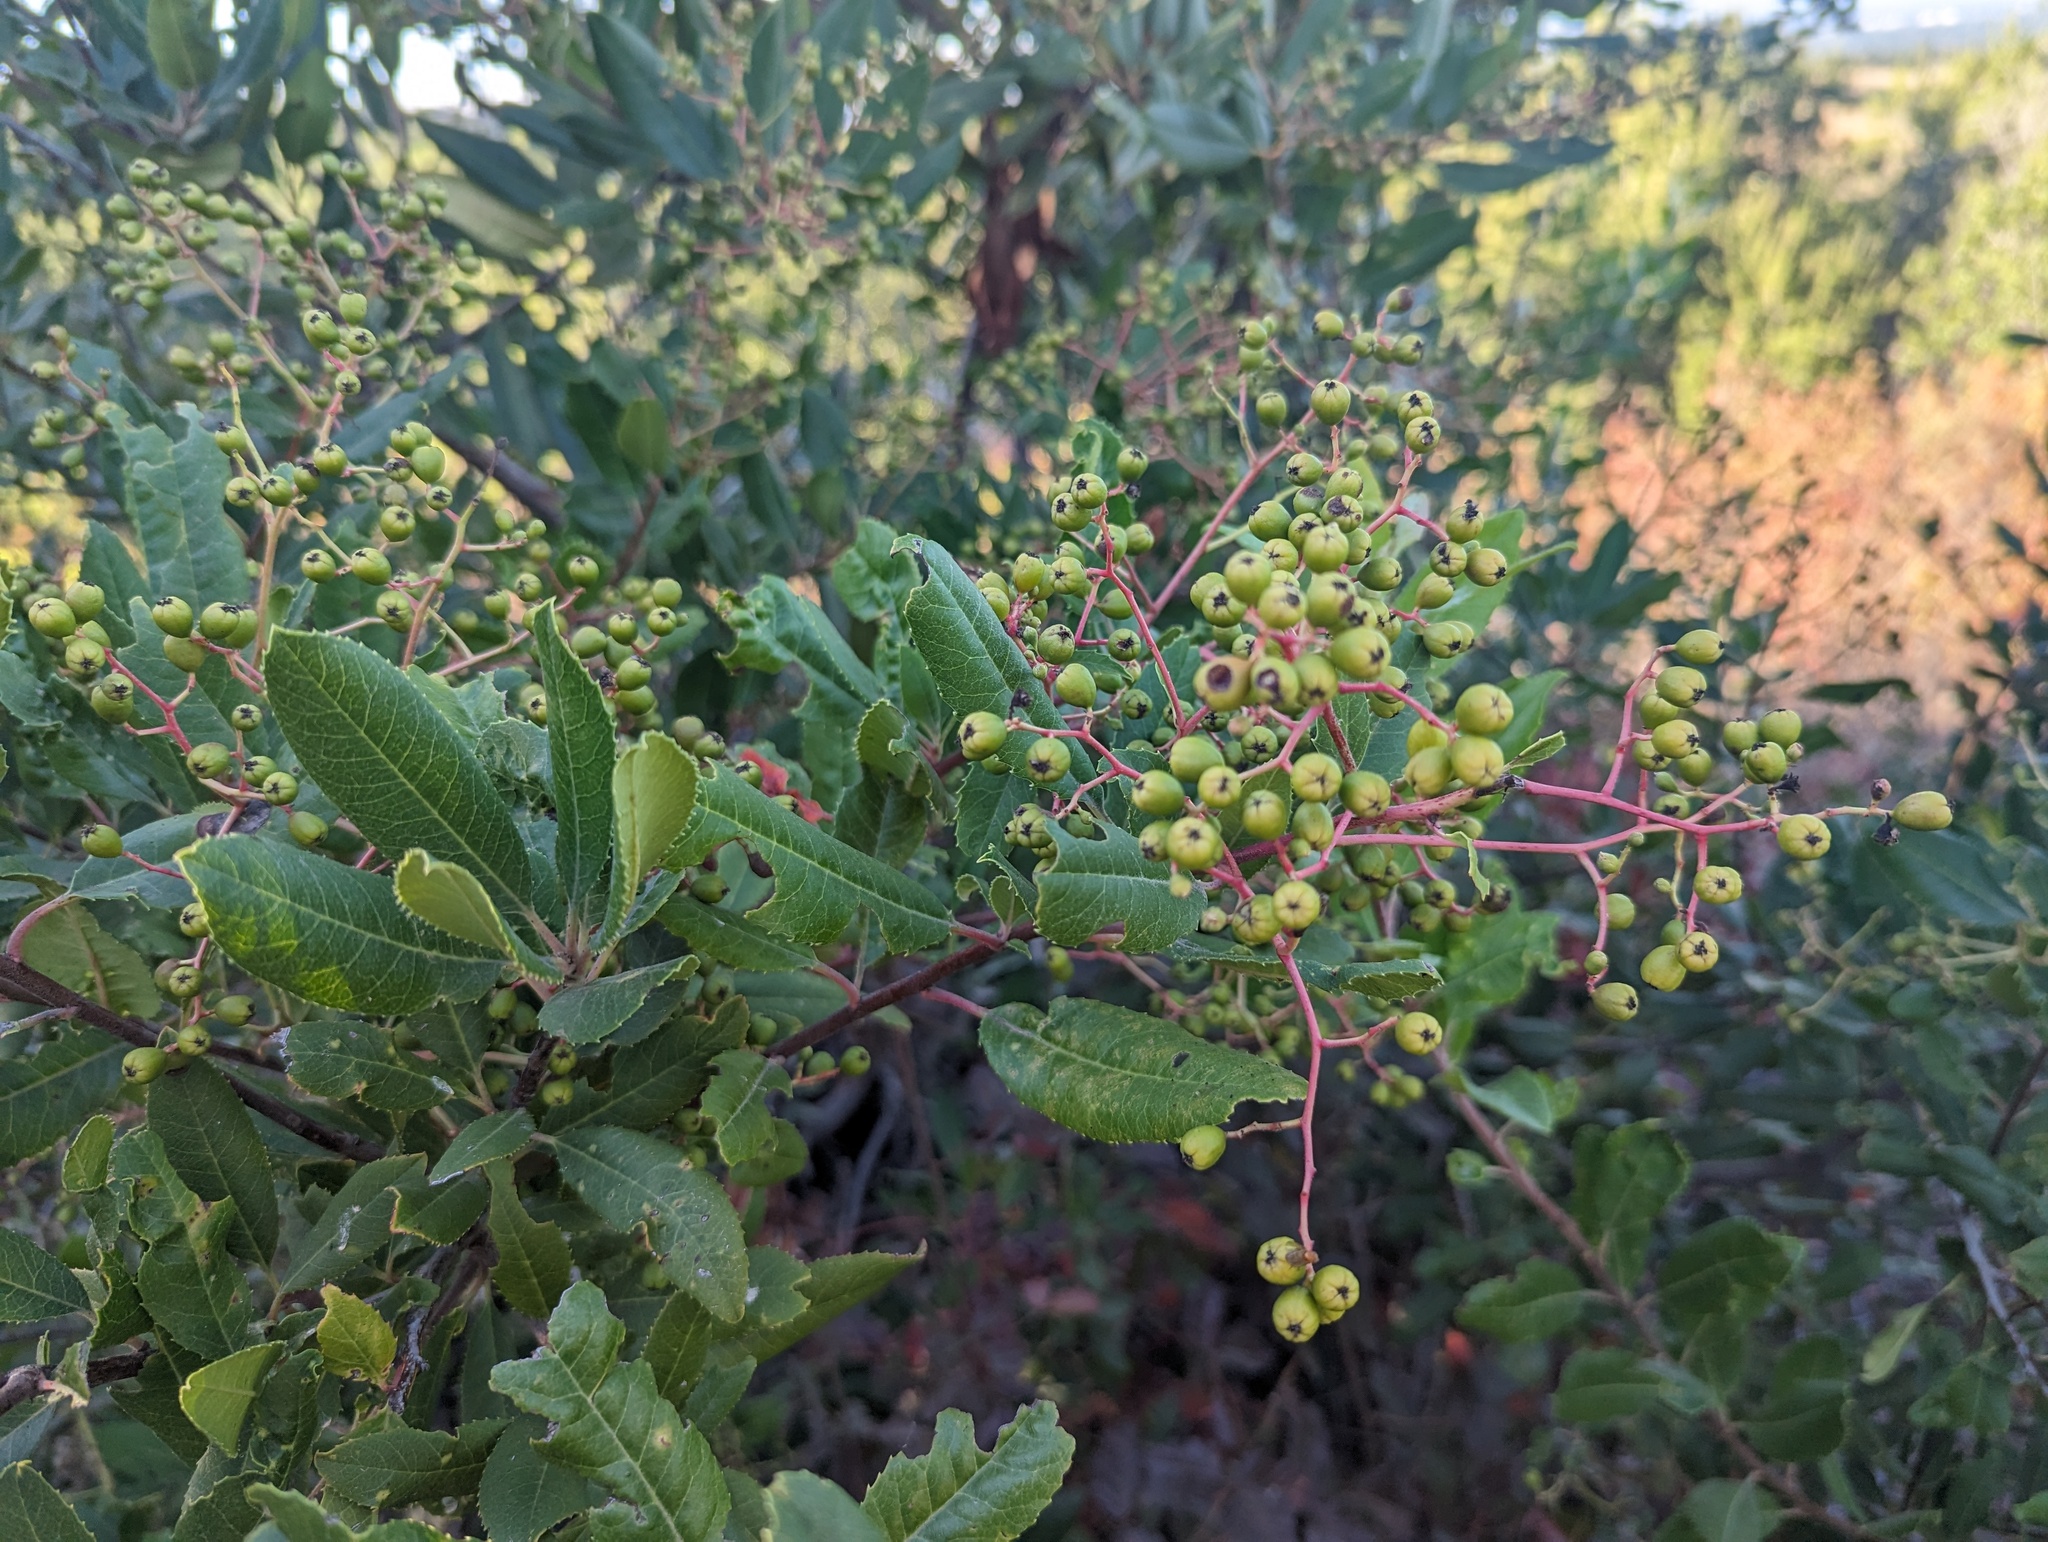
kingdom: Plantae
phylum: Tracheophyta
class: Magnoliopsida
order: Rosales
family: Rosaceae
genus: Heteromeles
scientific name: Heteromeles arbutifolia
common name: California-holly
